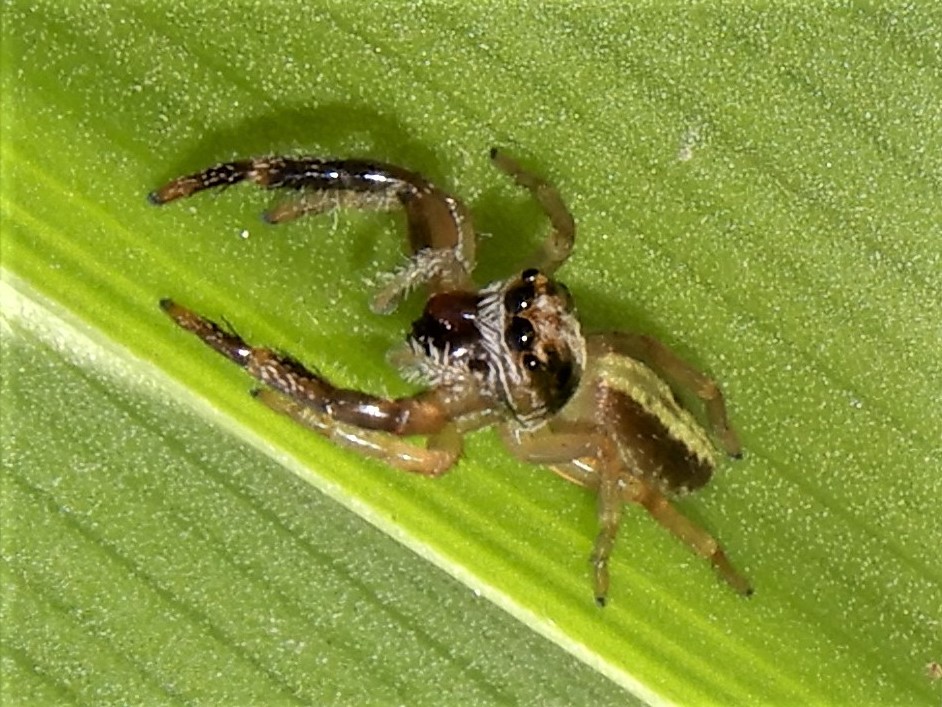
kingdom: Animalia
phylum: Arthropoda
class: Arachnida
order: Araneae
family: Salticidae
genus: Trite
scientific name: Trite planiceps
